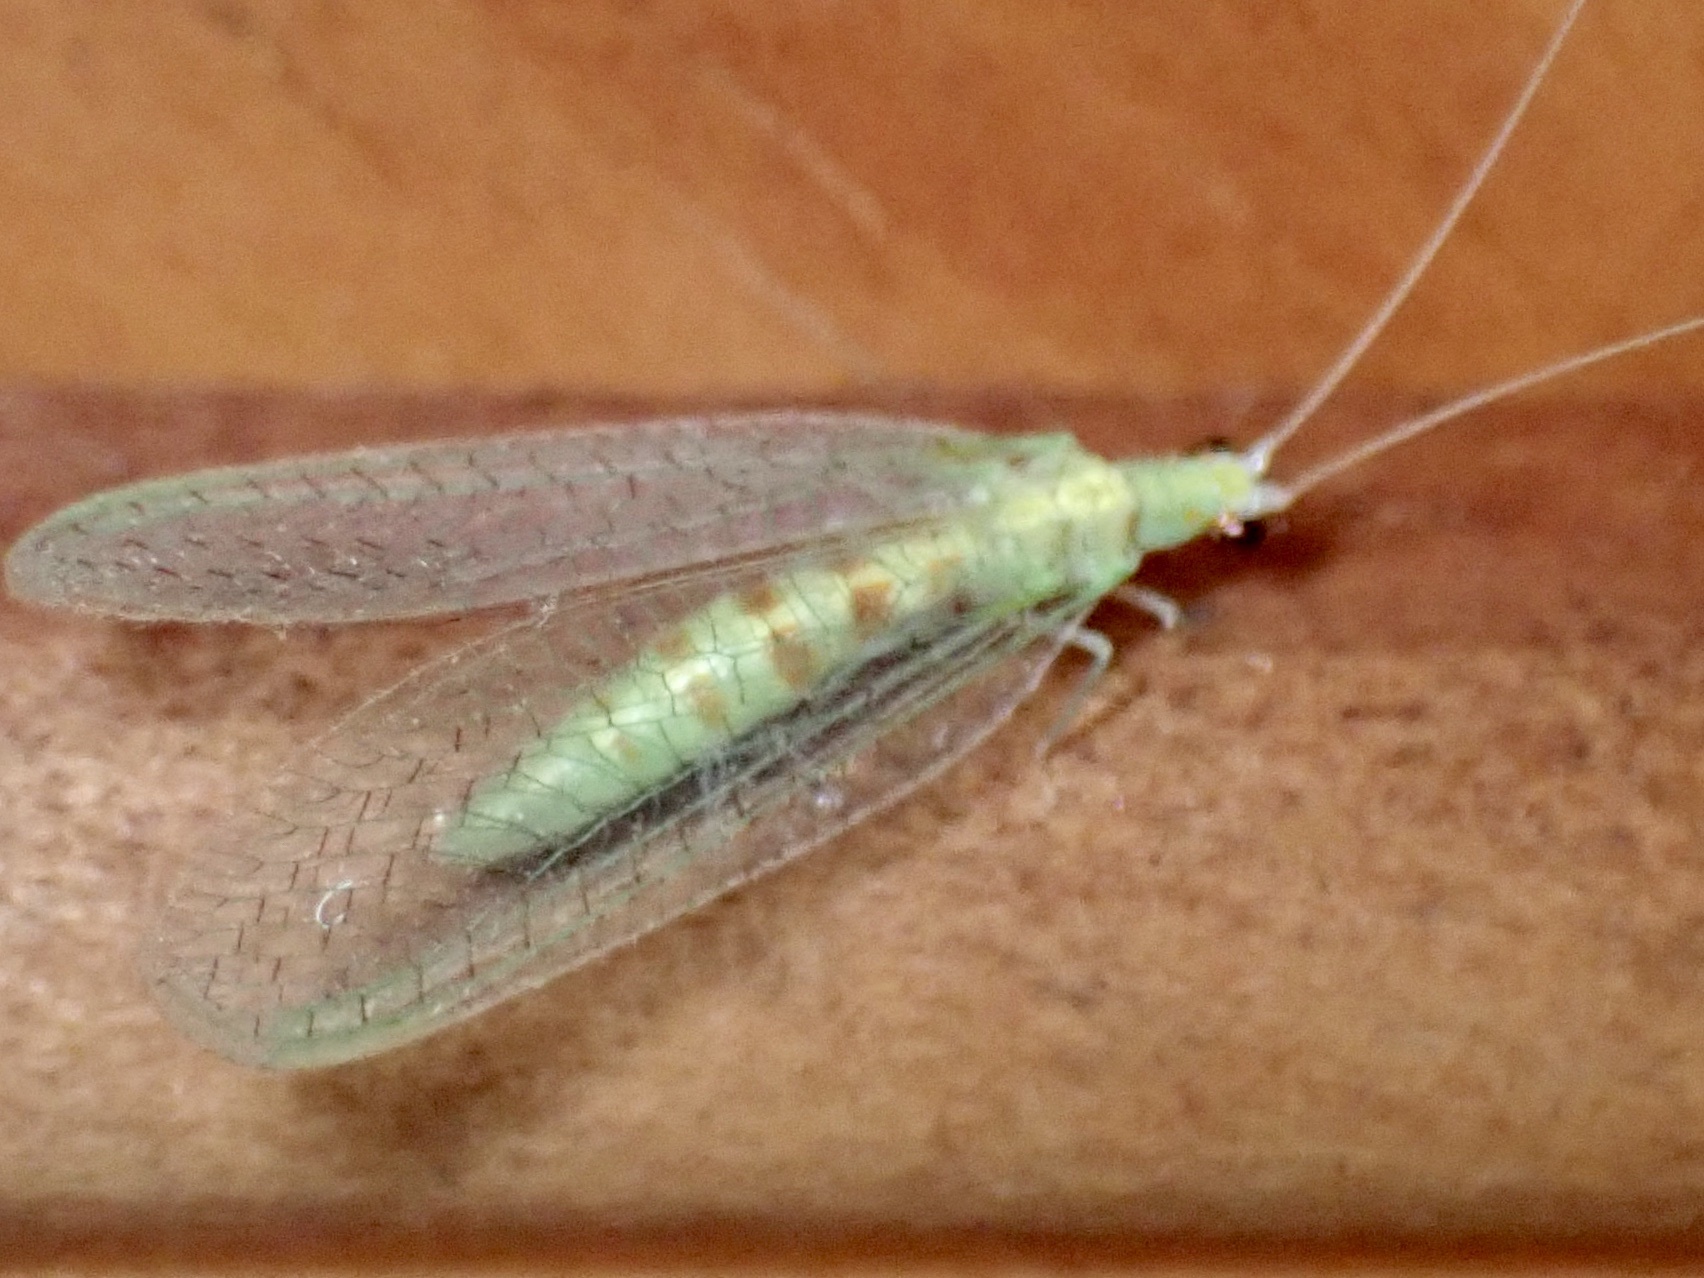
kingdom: Animalia
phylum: Arthropoda
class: Insecta
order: Neuroptera
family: Chrysopidae
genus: Chrysopa
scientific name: Chrysopa quadripunctata
